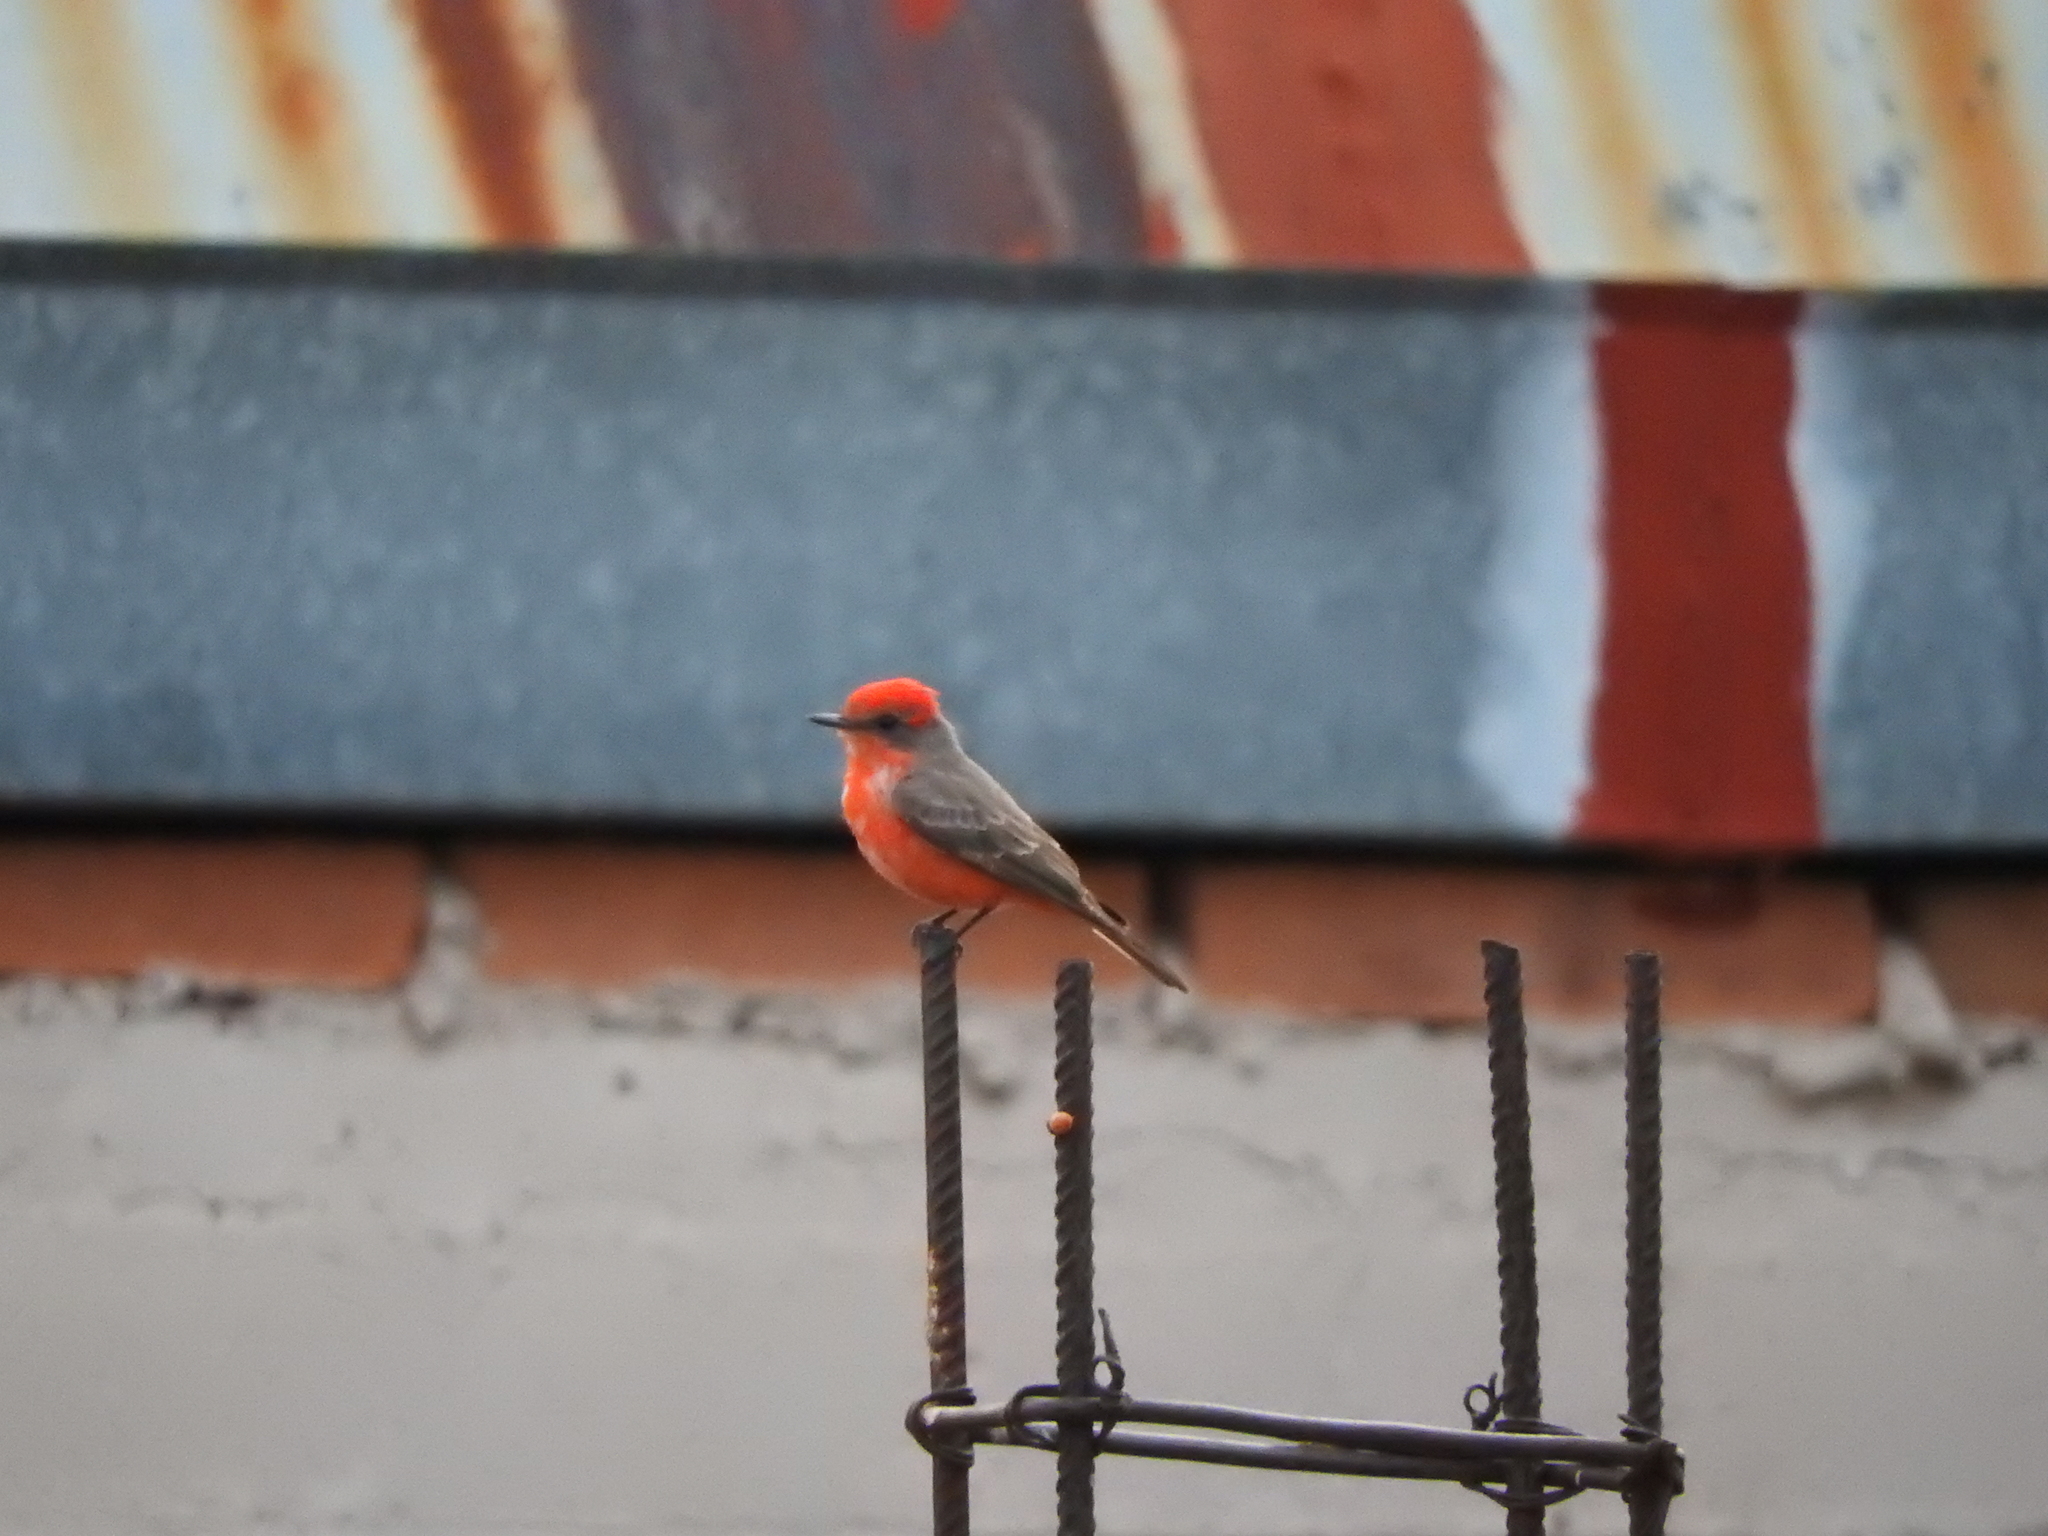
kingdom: Animalia
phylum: Chordata
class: Aves
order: Passeriformes
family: Tyrannidae
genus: Pyrocephalus
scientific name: Pyrocephalus rubinus
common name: Vermilion flycatcher
